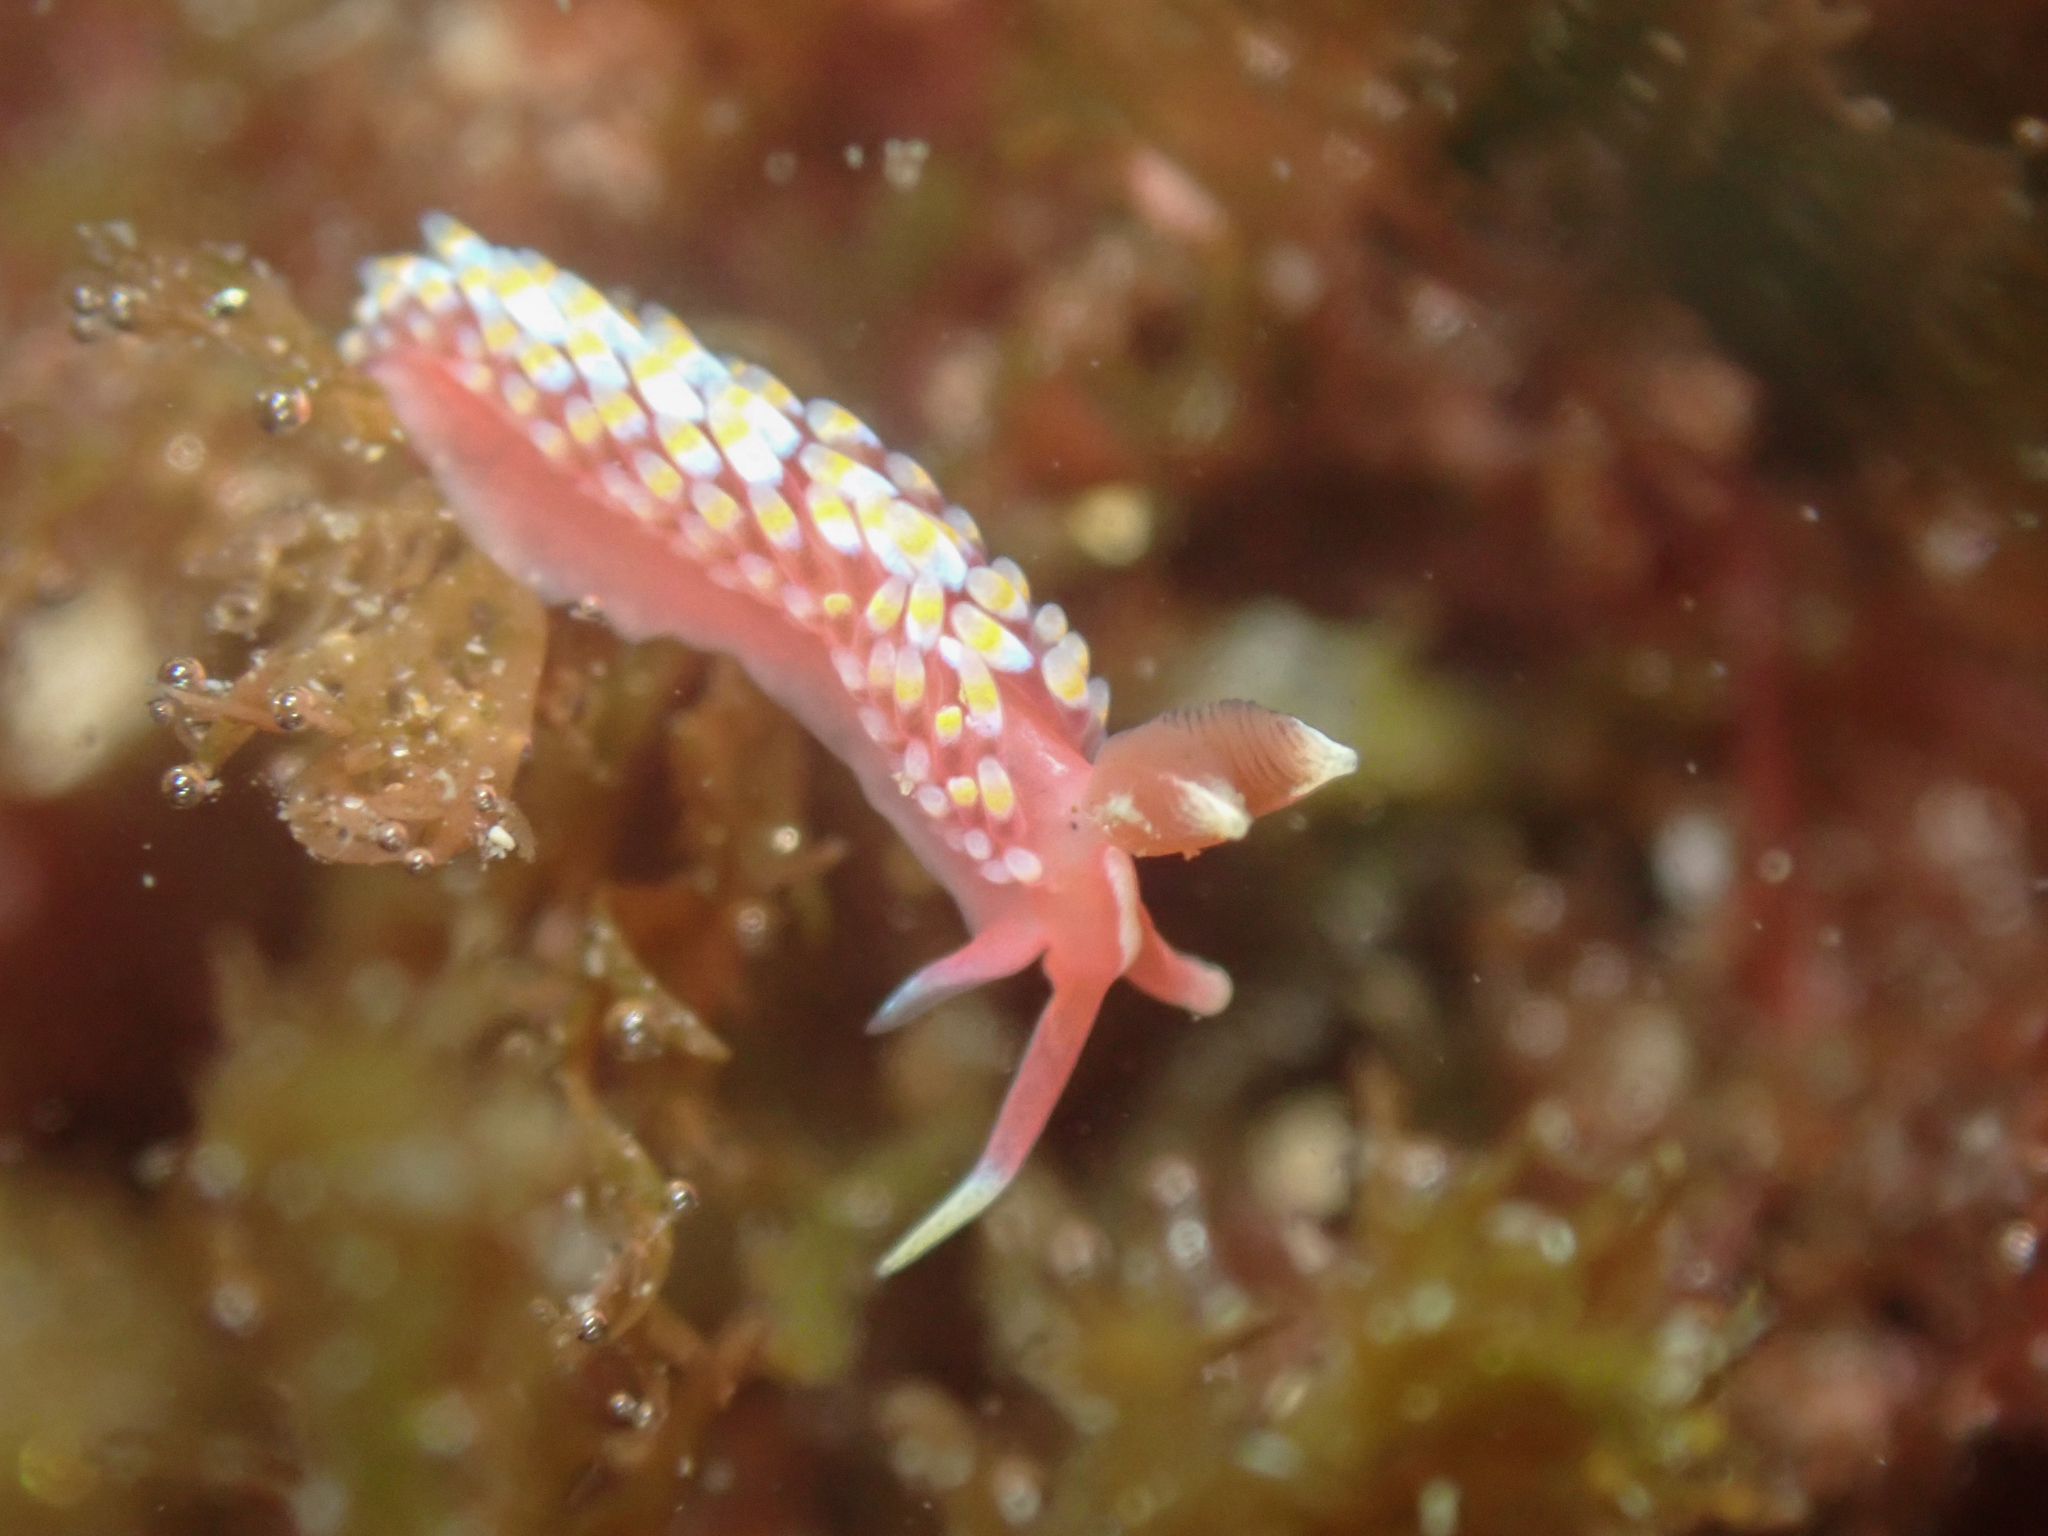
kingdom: Animalia
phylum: Mollusca
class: Gastropoda
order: Nudibranchia
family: Babakinidae
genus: Babakina
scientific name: Babakina festiva
